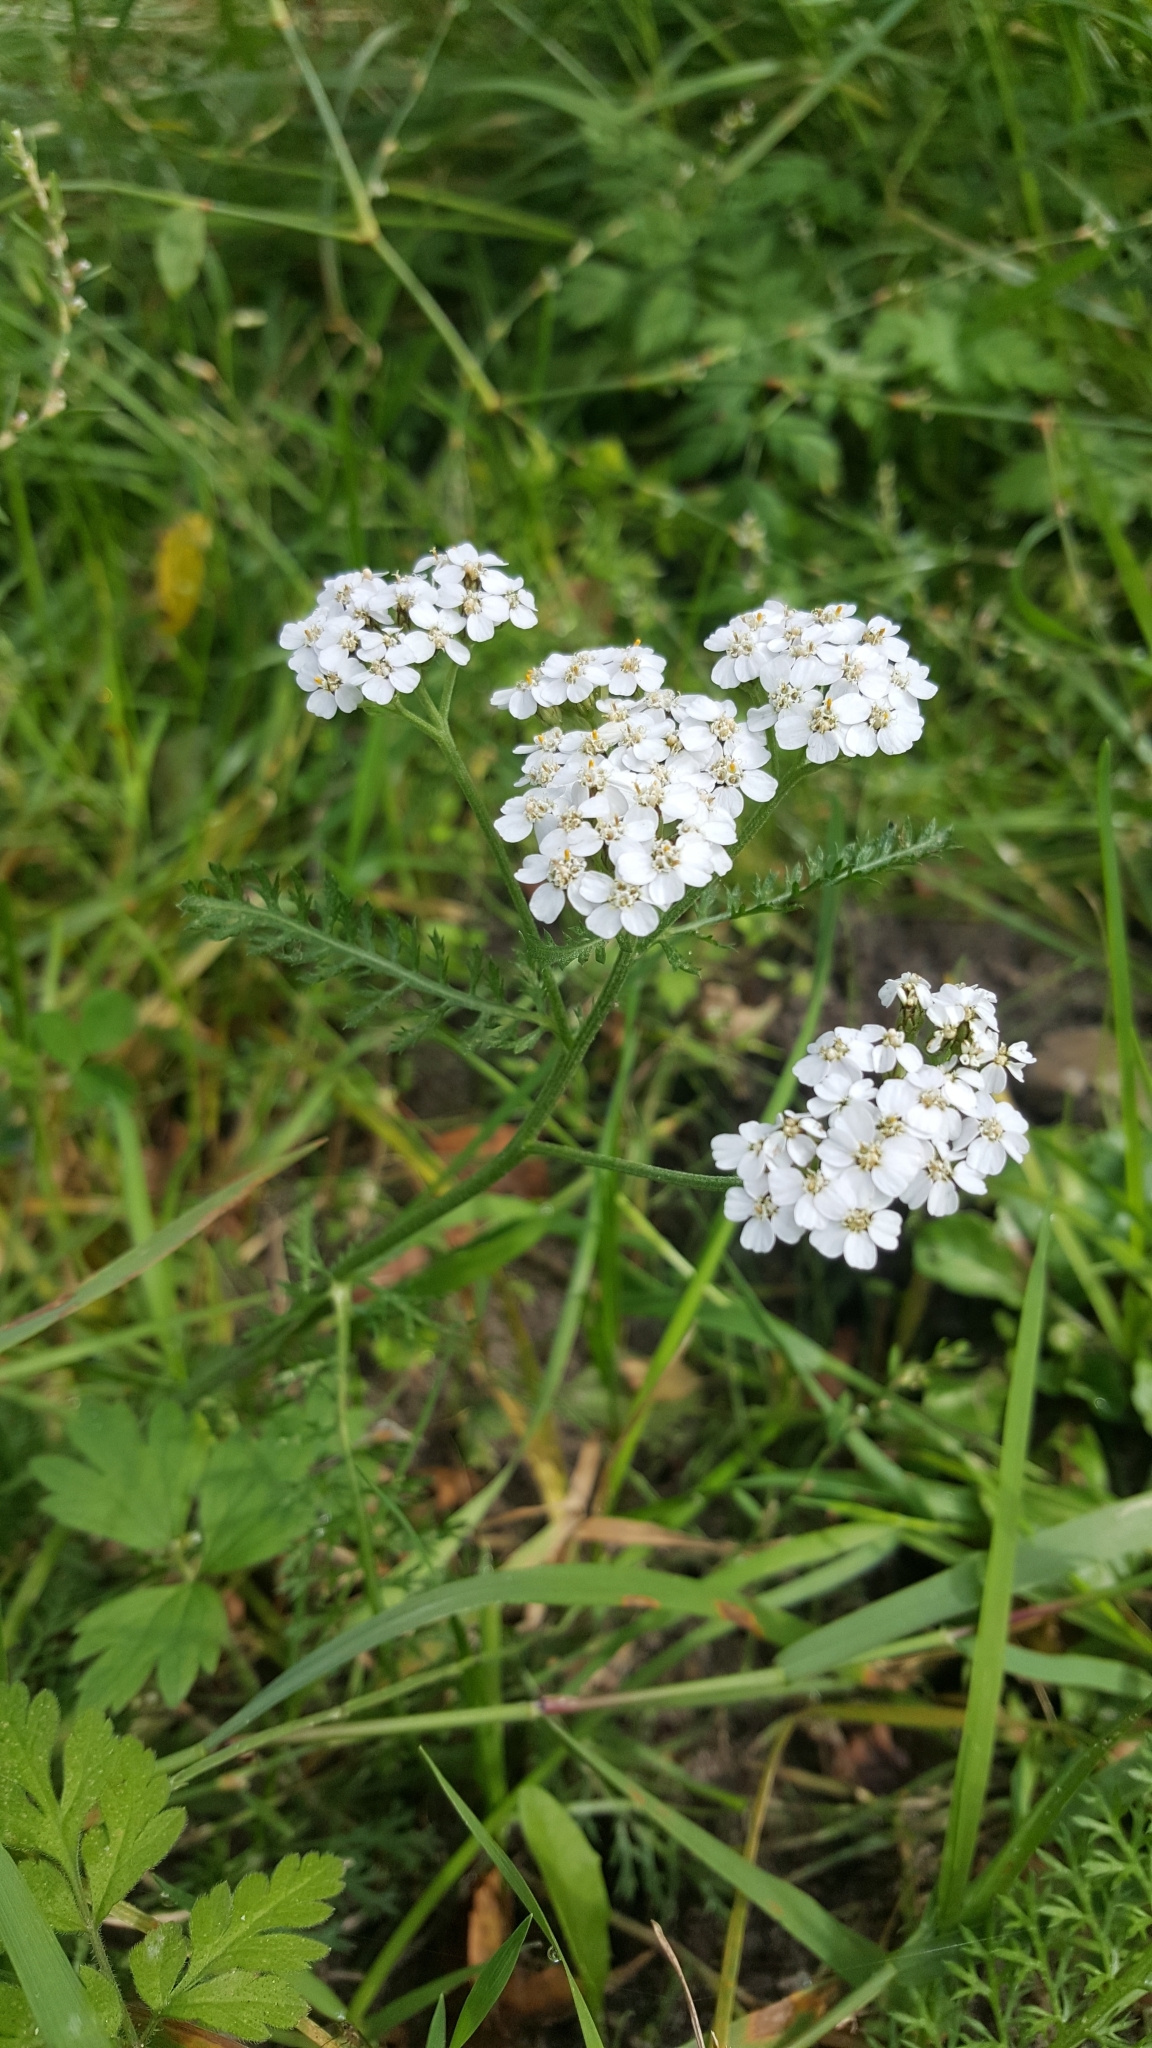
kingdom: Plantae
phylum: Tracheophyta
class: Magnoliopsida
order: Asterales
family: Asteraceae
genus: Achillea
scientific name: Achillea millefolium
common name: Yarrow
